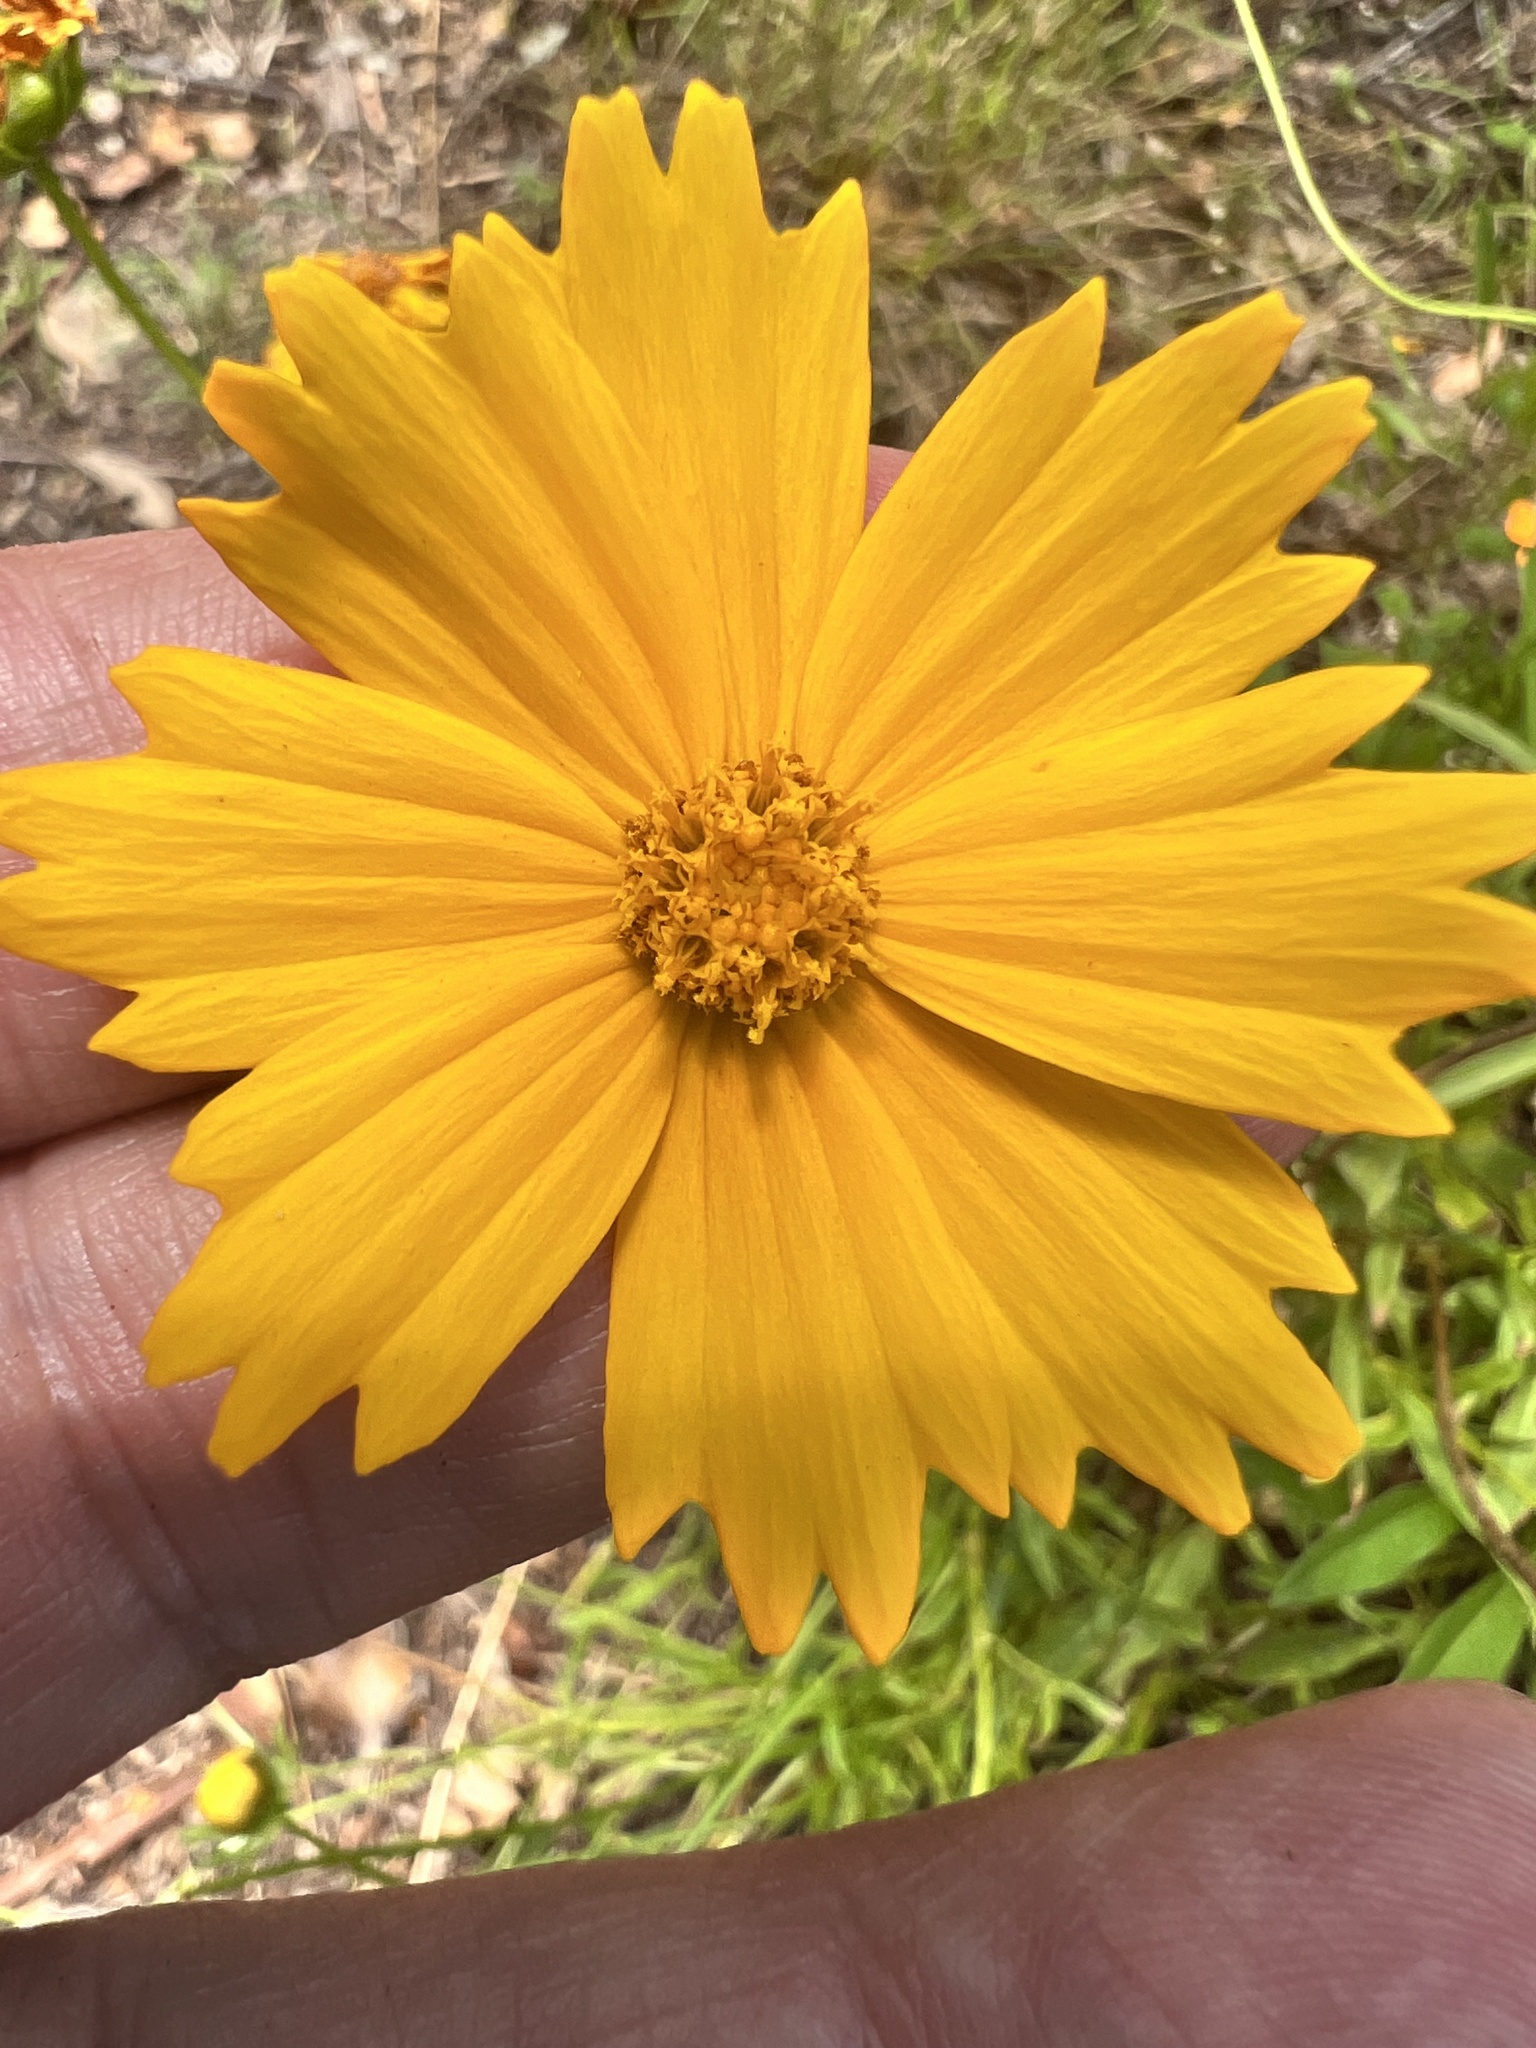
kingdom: Plantae
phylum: Tracheophyta
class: Magnoliopsida
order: Asterales
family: Asteraceae
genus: Coreopsis
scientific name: Coreopsis lanceolata
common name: Garden coreopsis
